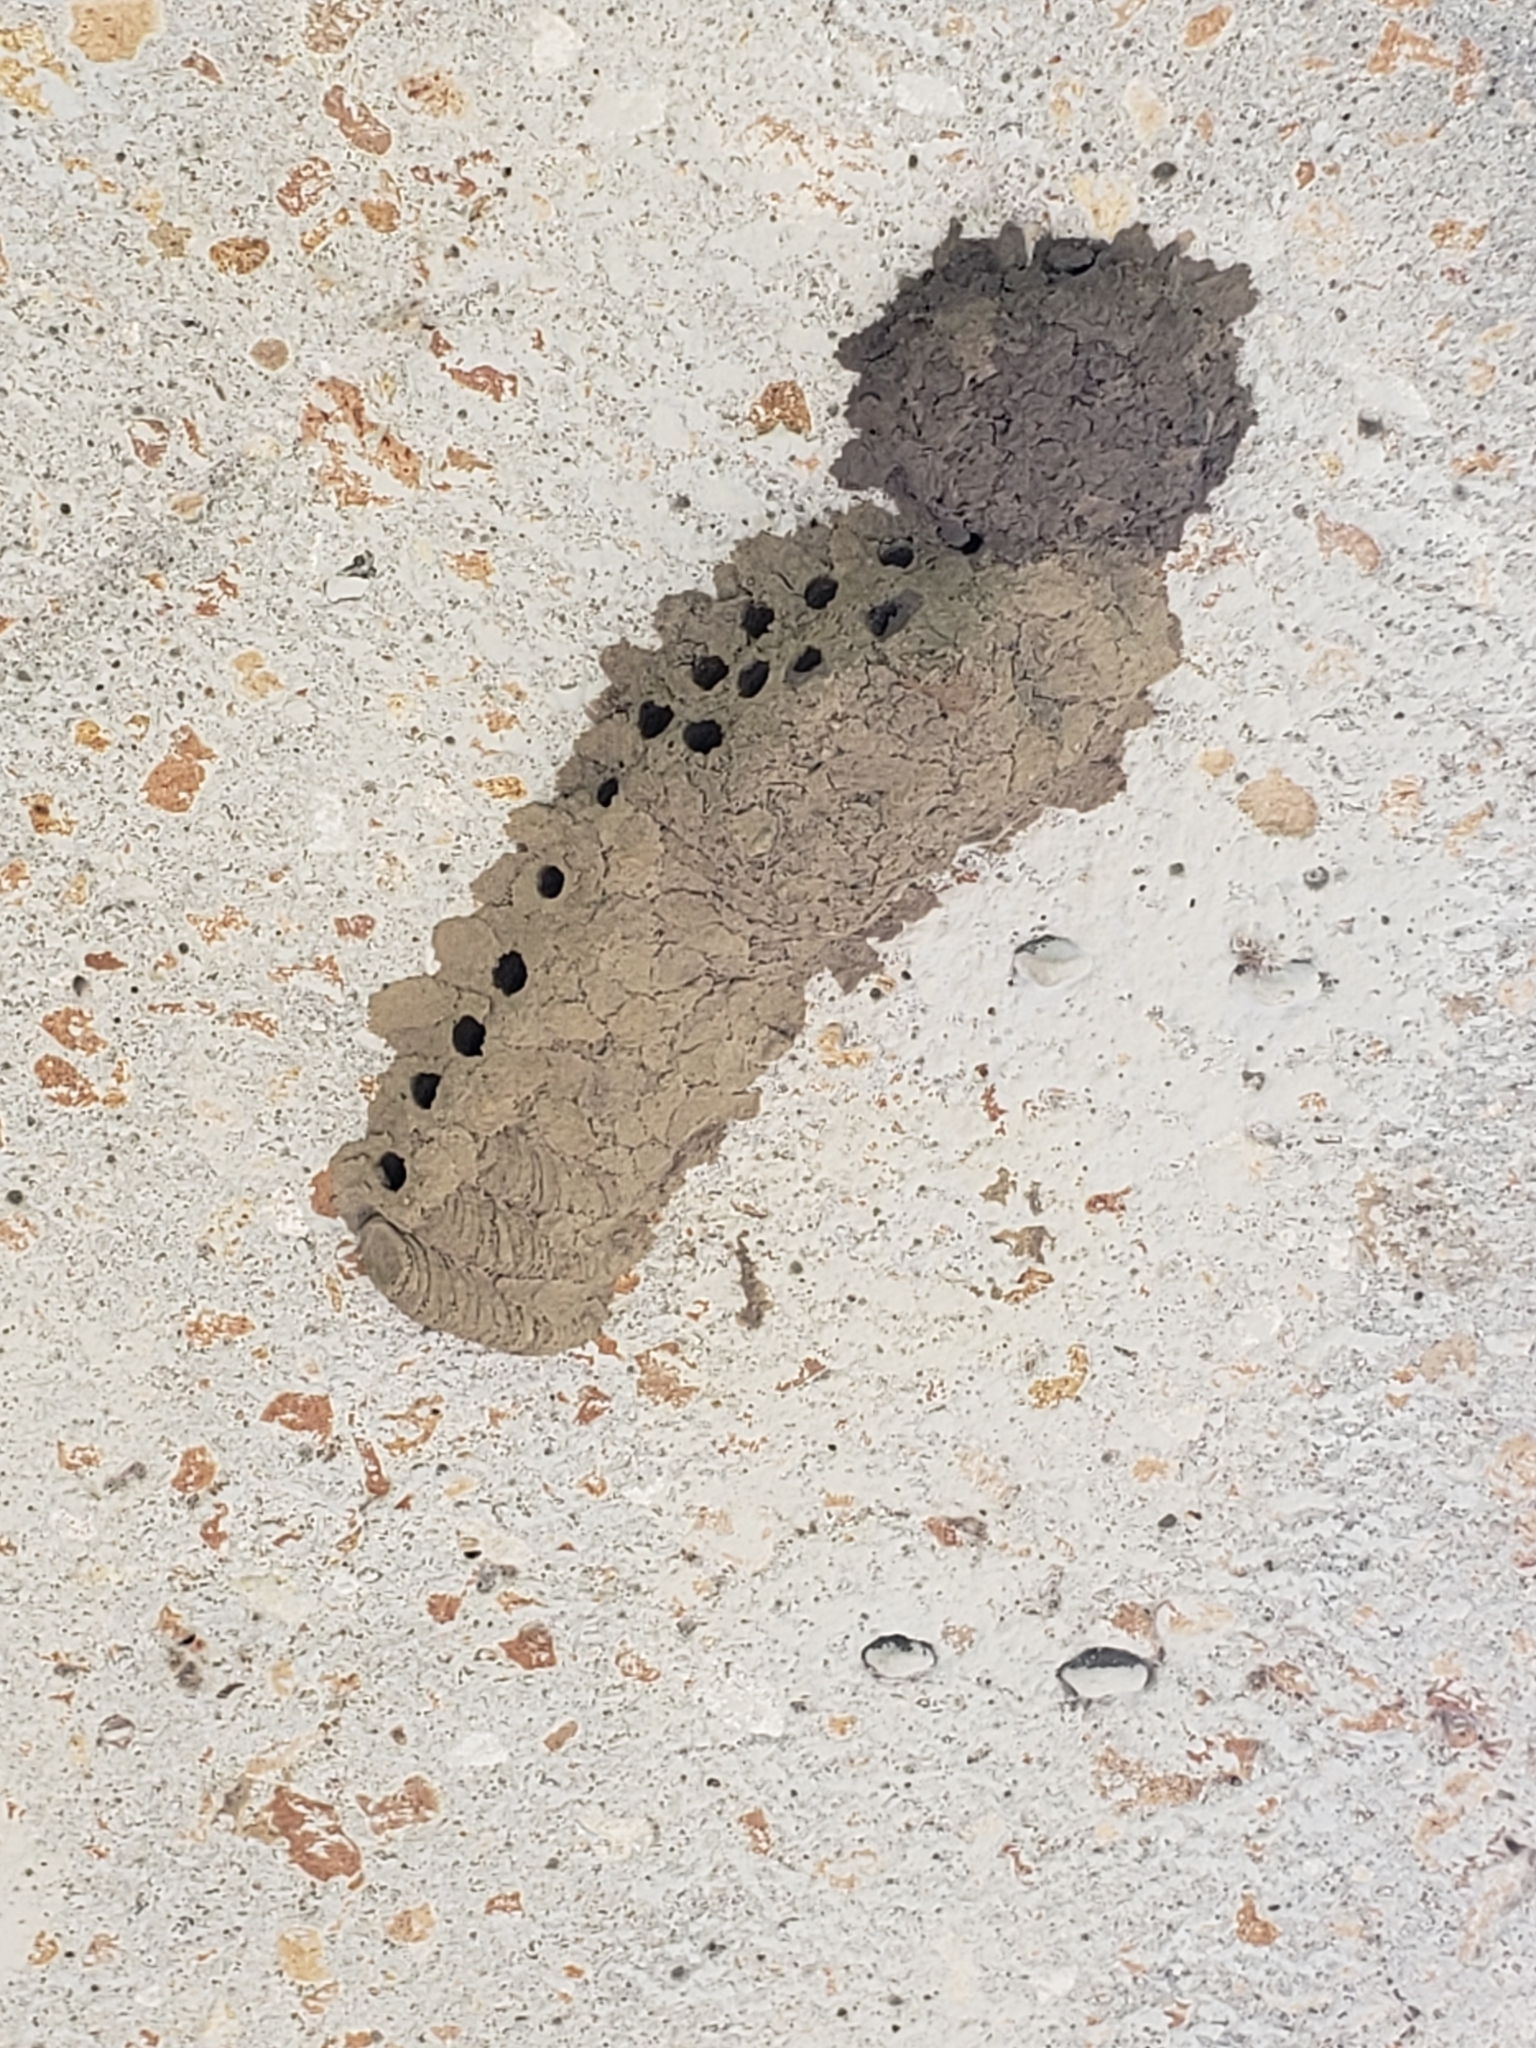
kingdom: Animalia
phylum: Arthropoda
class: Insecta
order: Hymenoptera
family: Sphecidae
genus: Sceliphron
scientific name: Sceliphron caementarium
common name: Mud dauber
